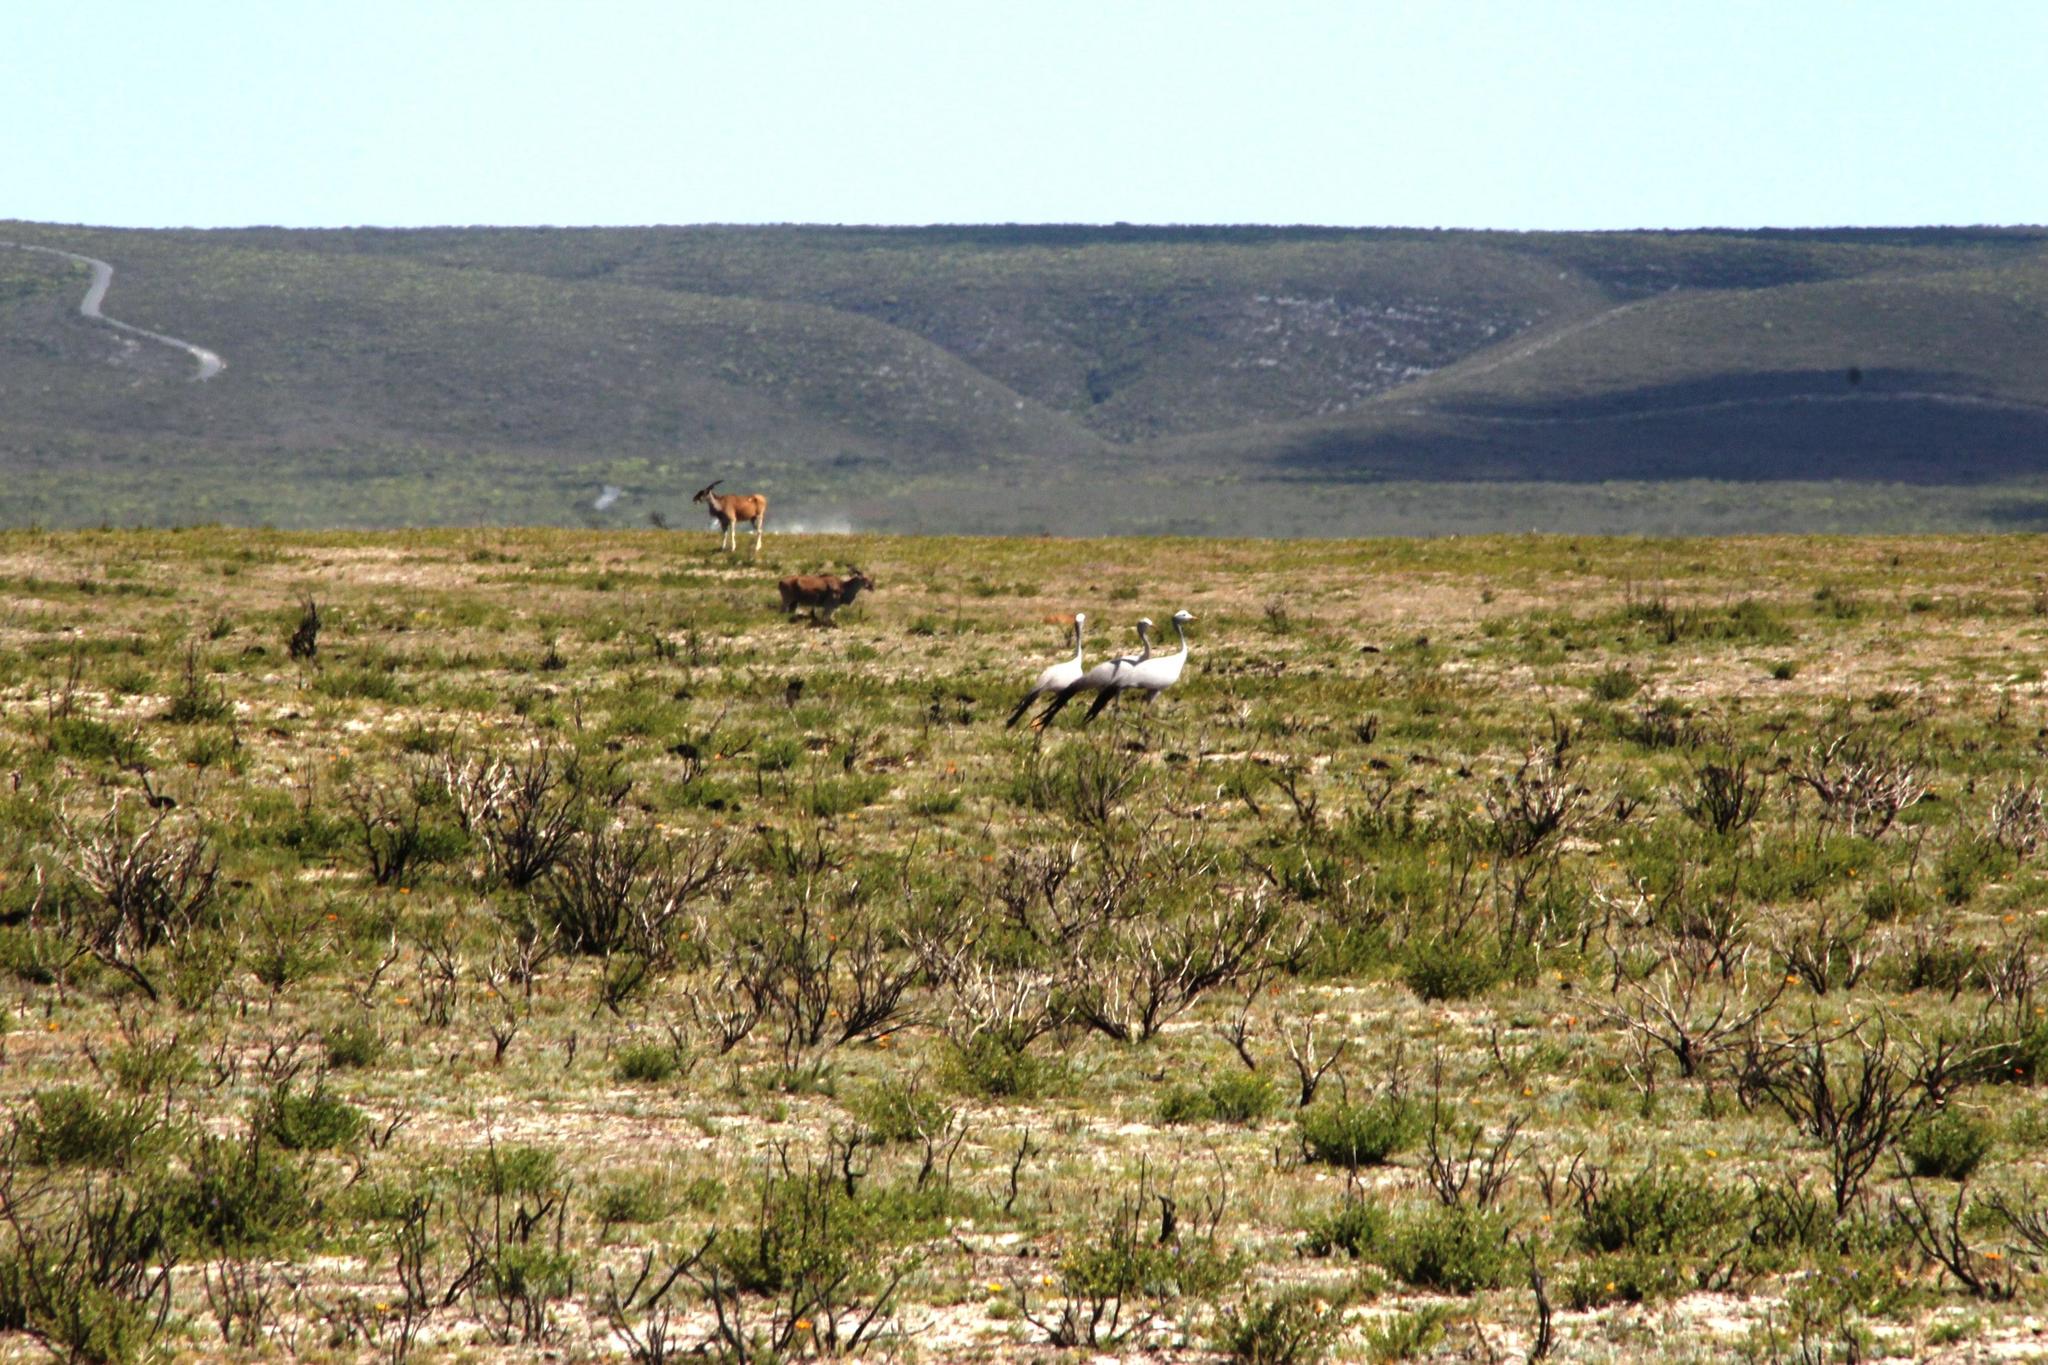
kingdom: Animalia
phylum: Chordata
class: Aves
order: Gruiformes
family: Gruidae
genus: Anthropoides
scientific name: Anthropoides paradiseus
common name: Blue crane
